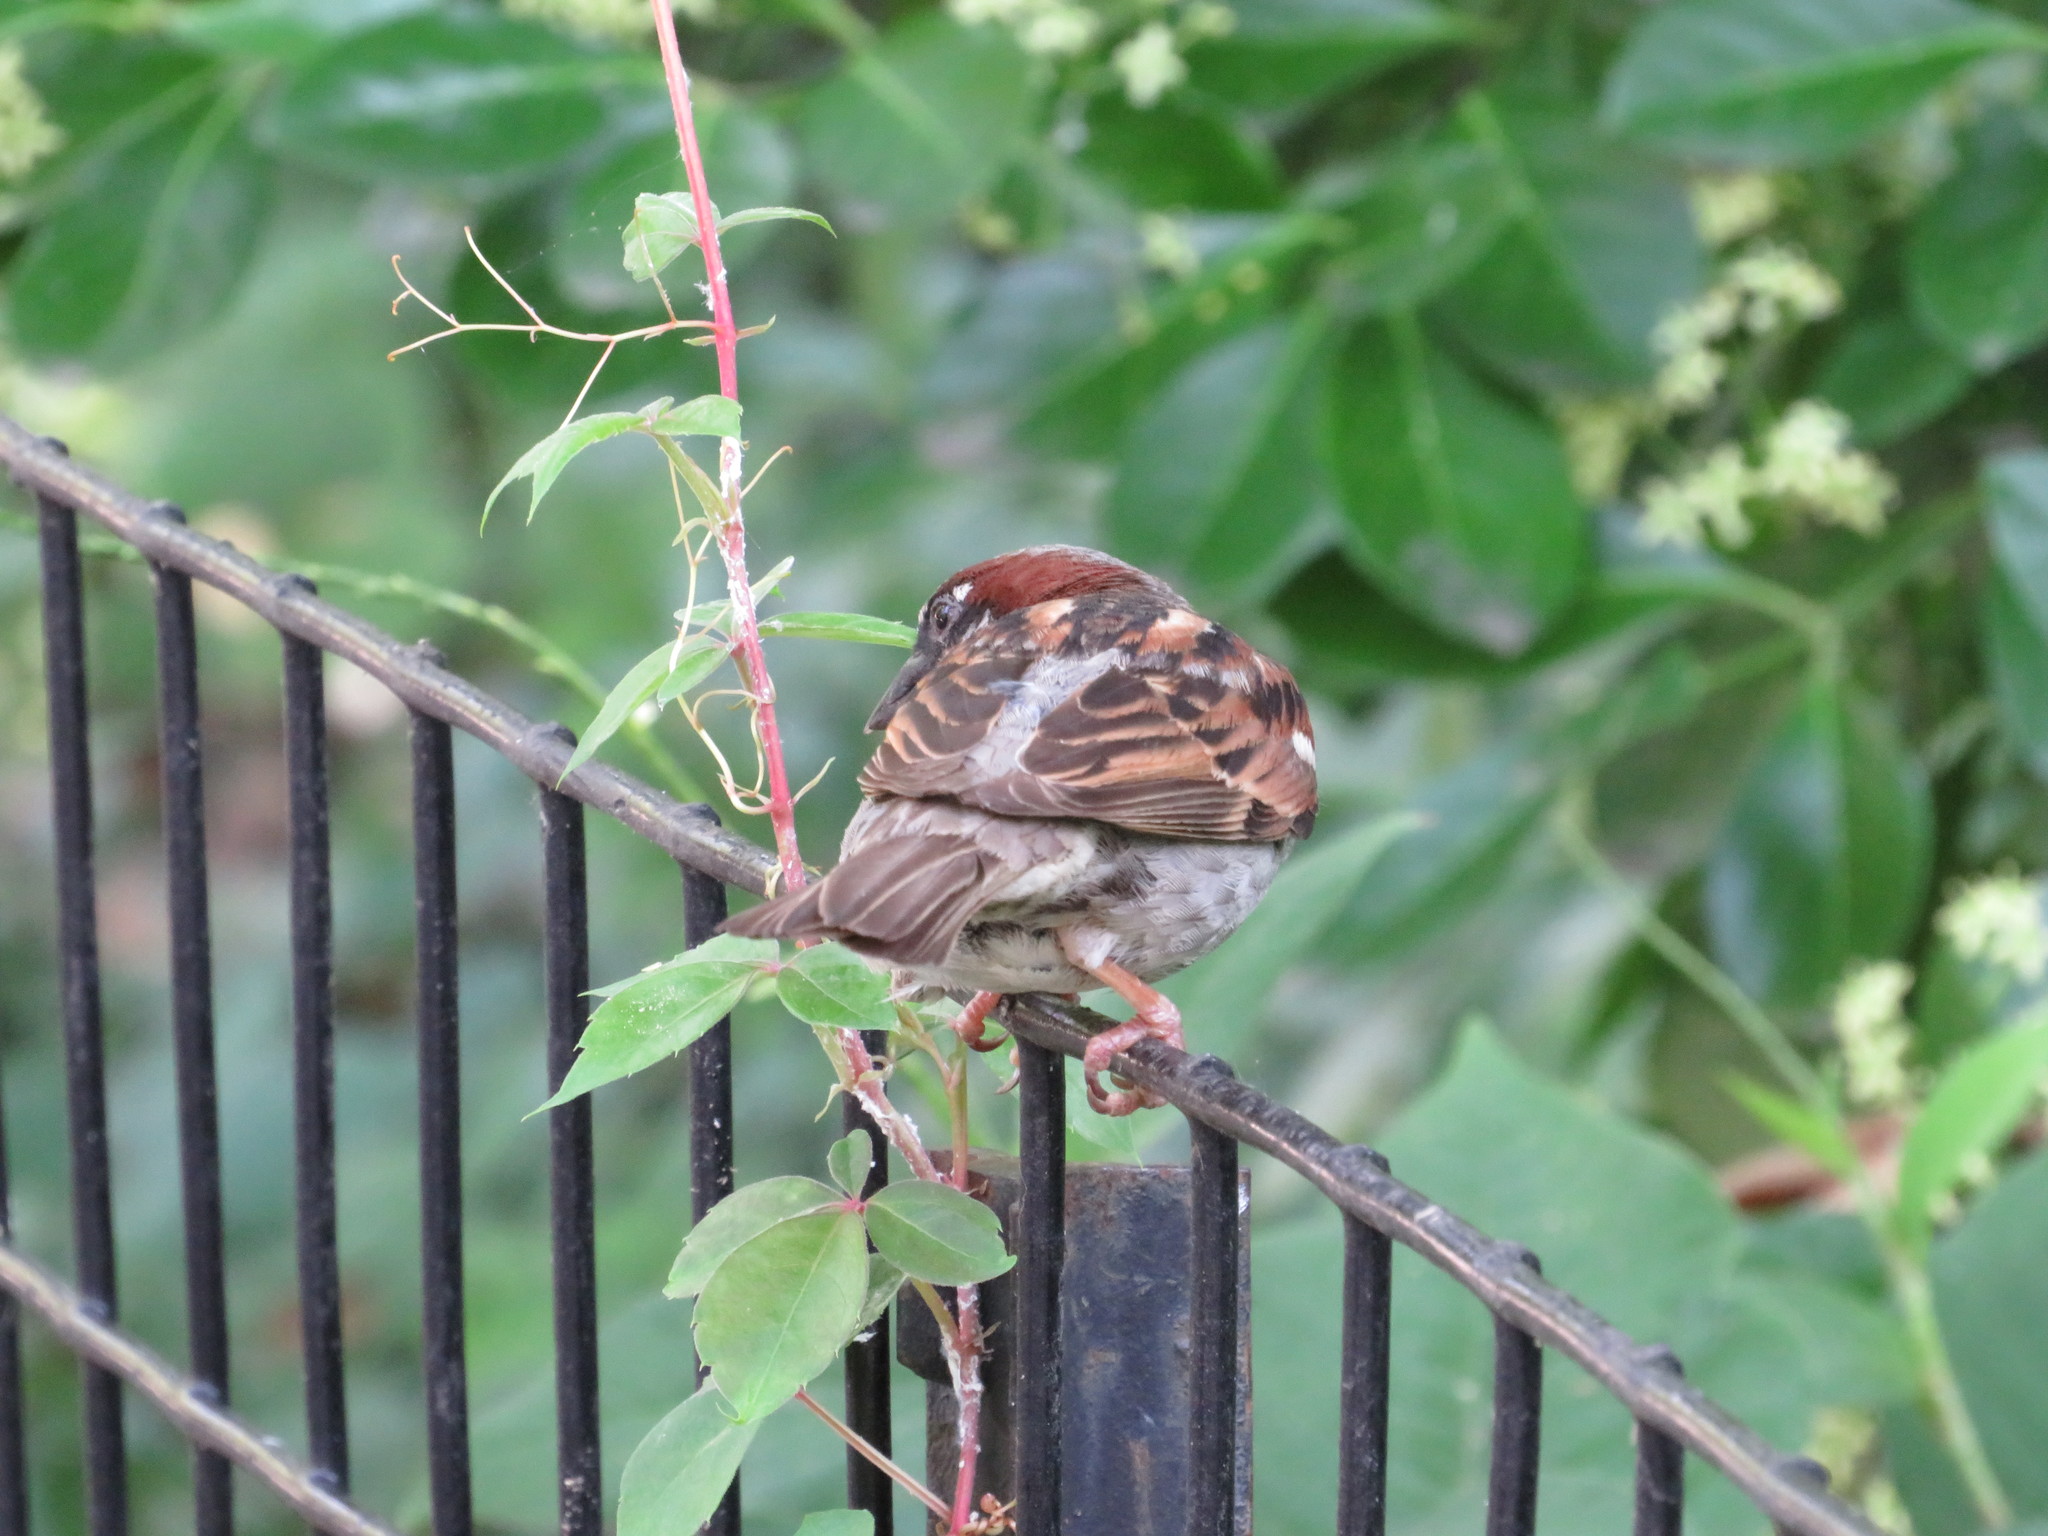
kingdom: Animalia
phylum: Chordata
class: Aves
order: Passeriformes
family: Passeridae
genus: Passer
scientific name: Passer domesticus
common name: House sparrow
